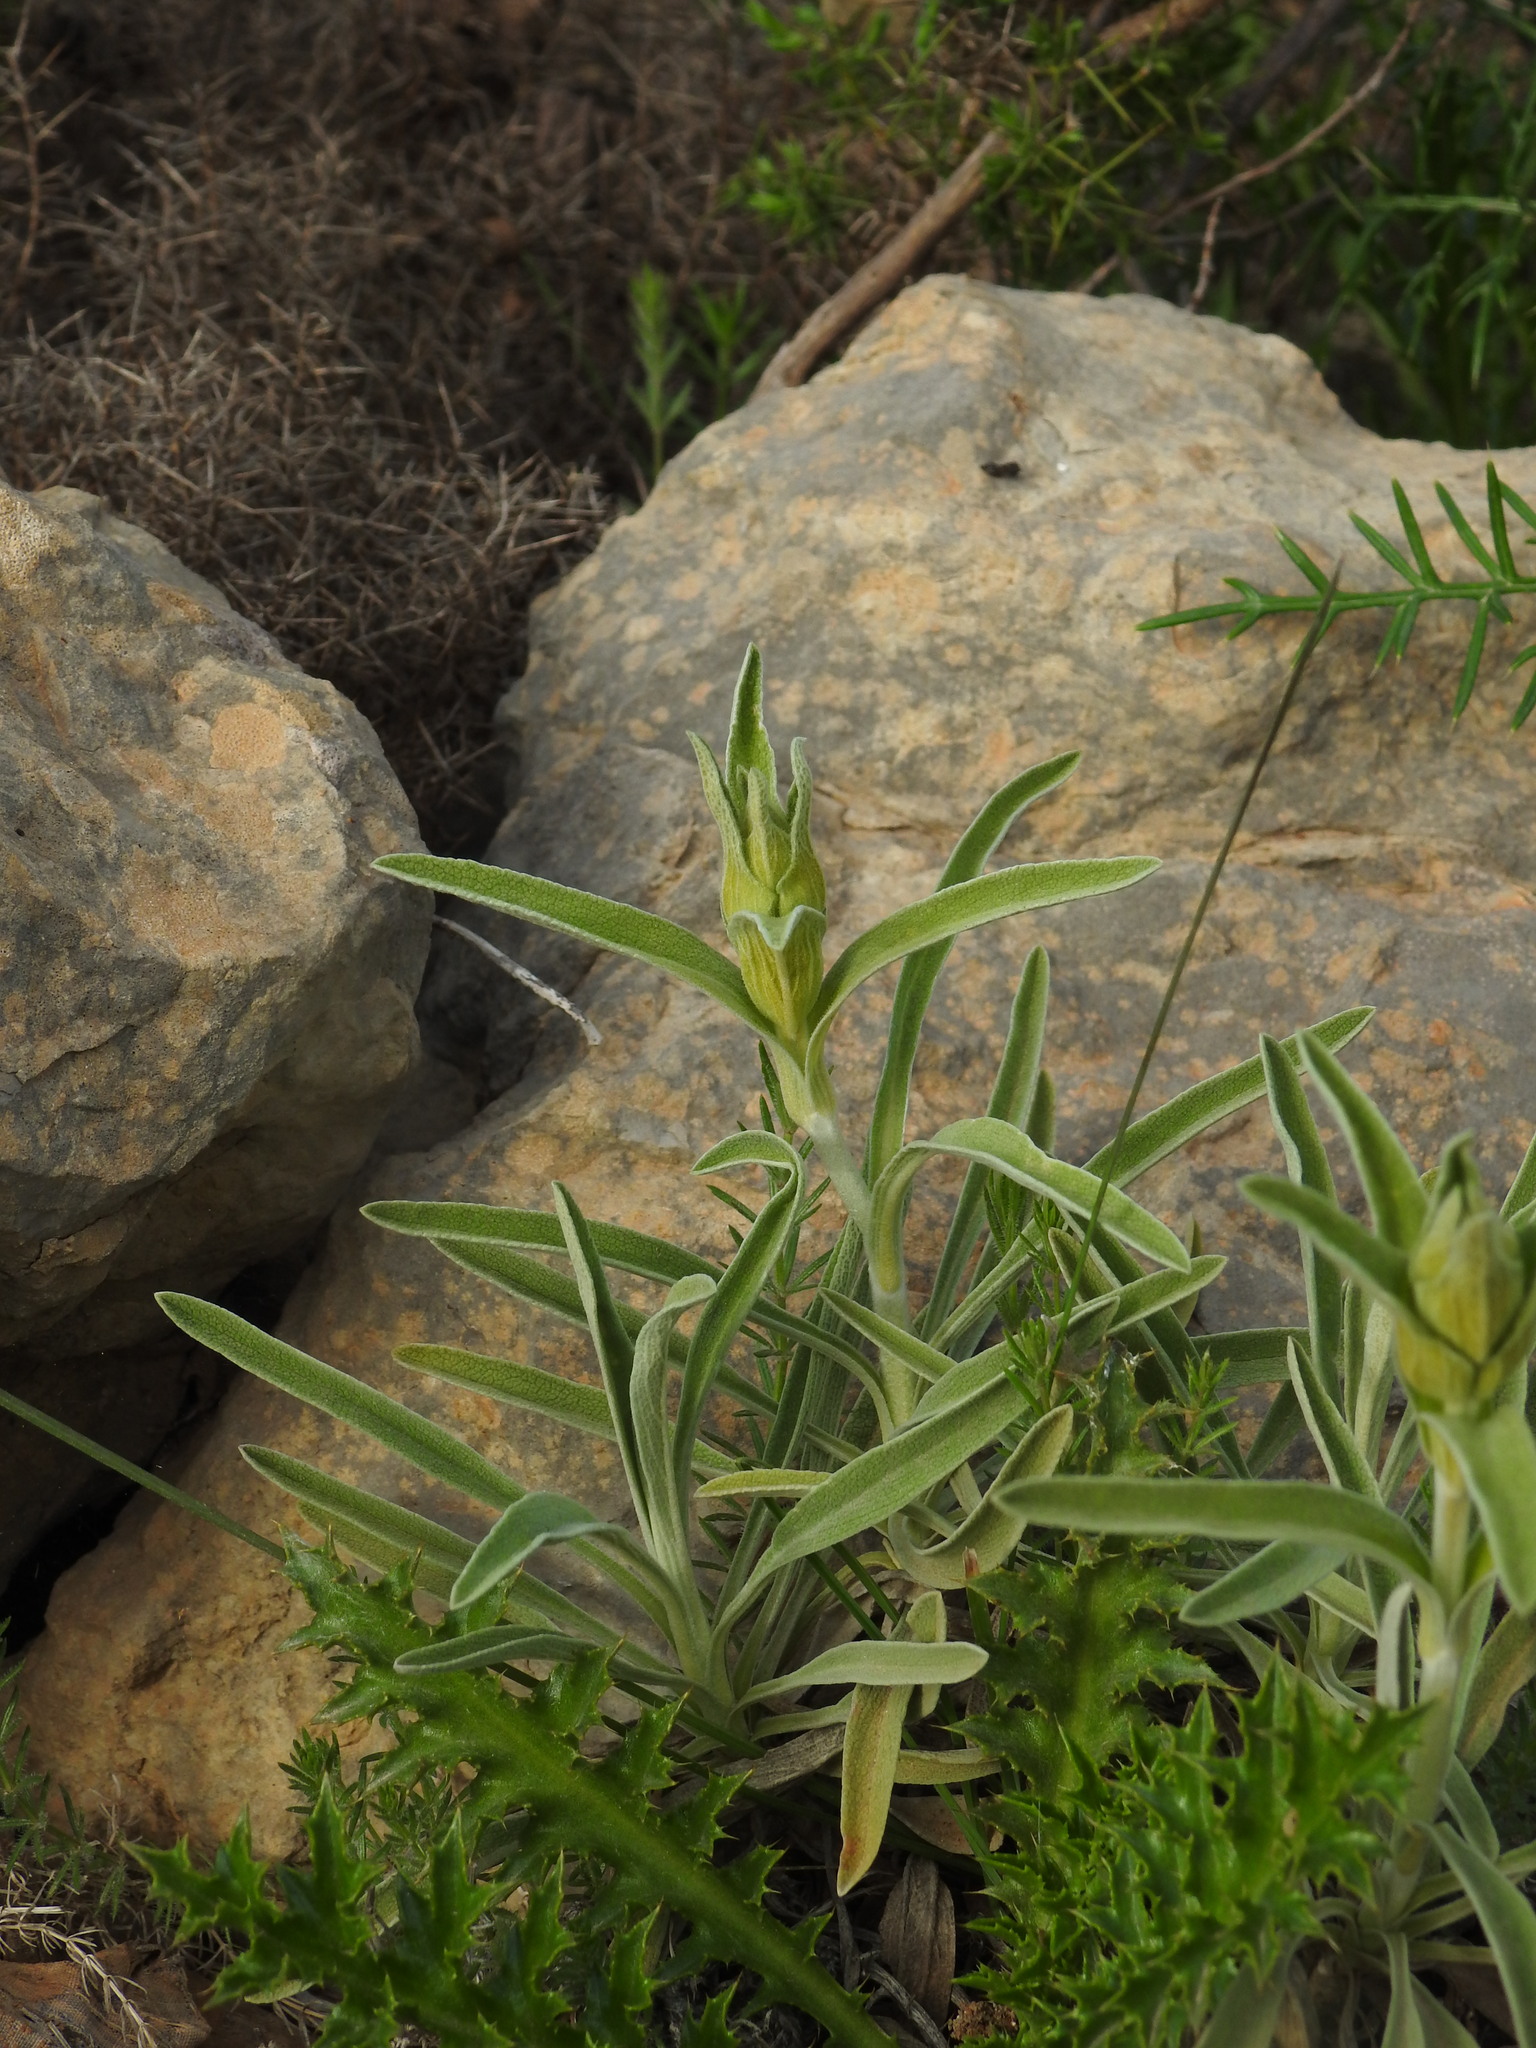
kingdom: Plantae
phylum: Tracheophyta
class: Magnoliopsida
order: Lamiales
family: Lamiaceae
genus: Phlomis
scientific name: Phlomis lychnitis
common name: Lampwickplant
